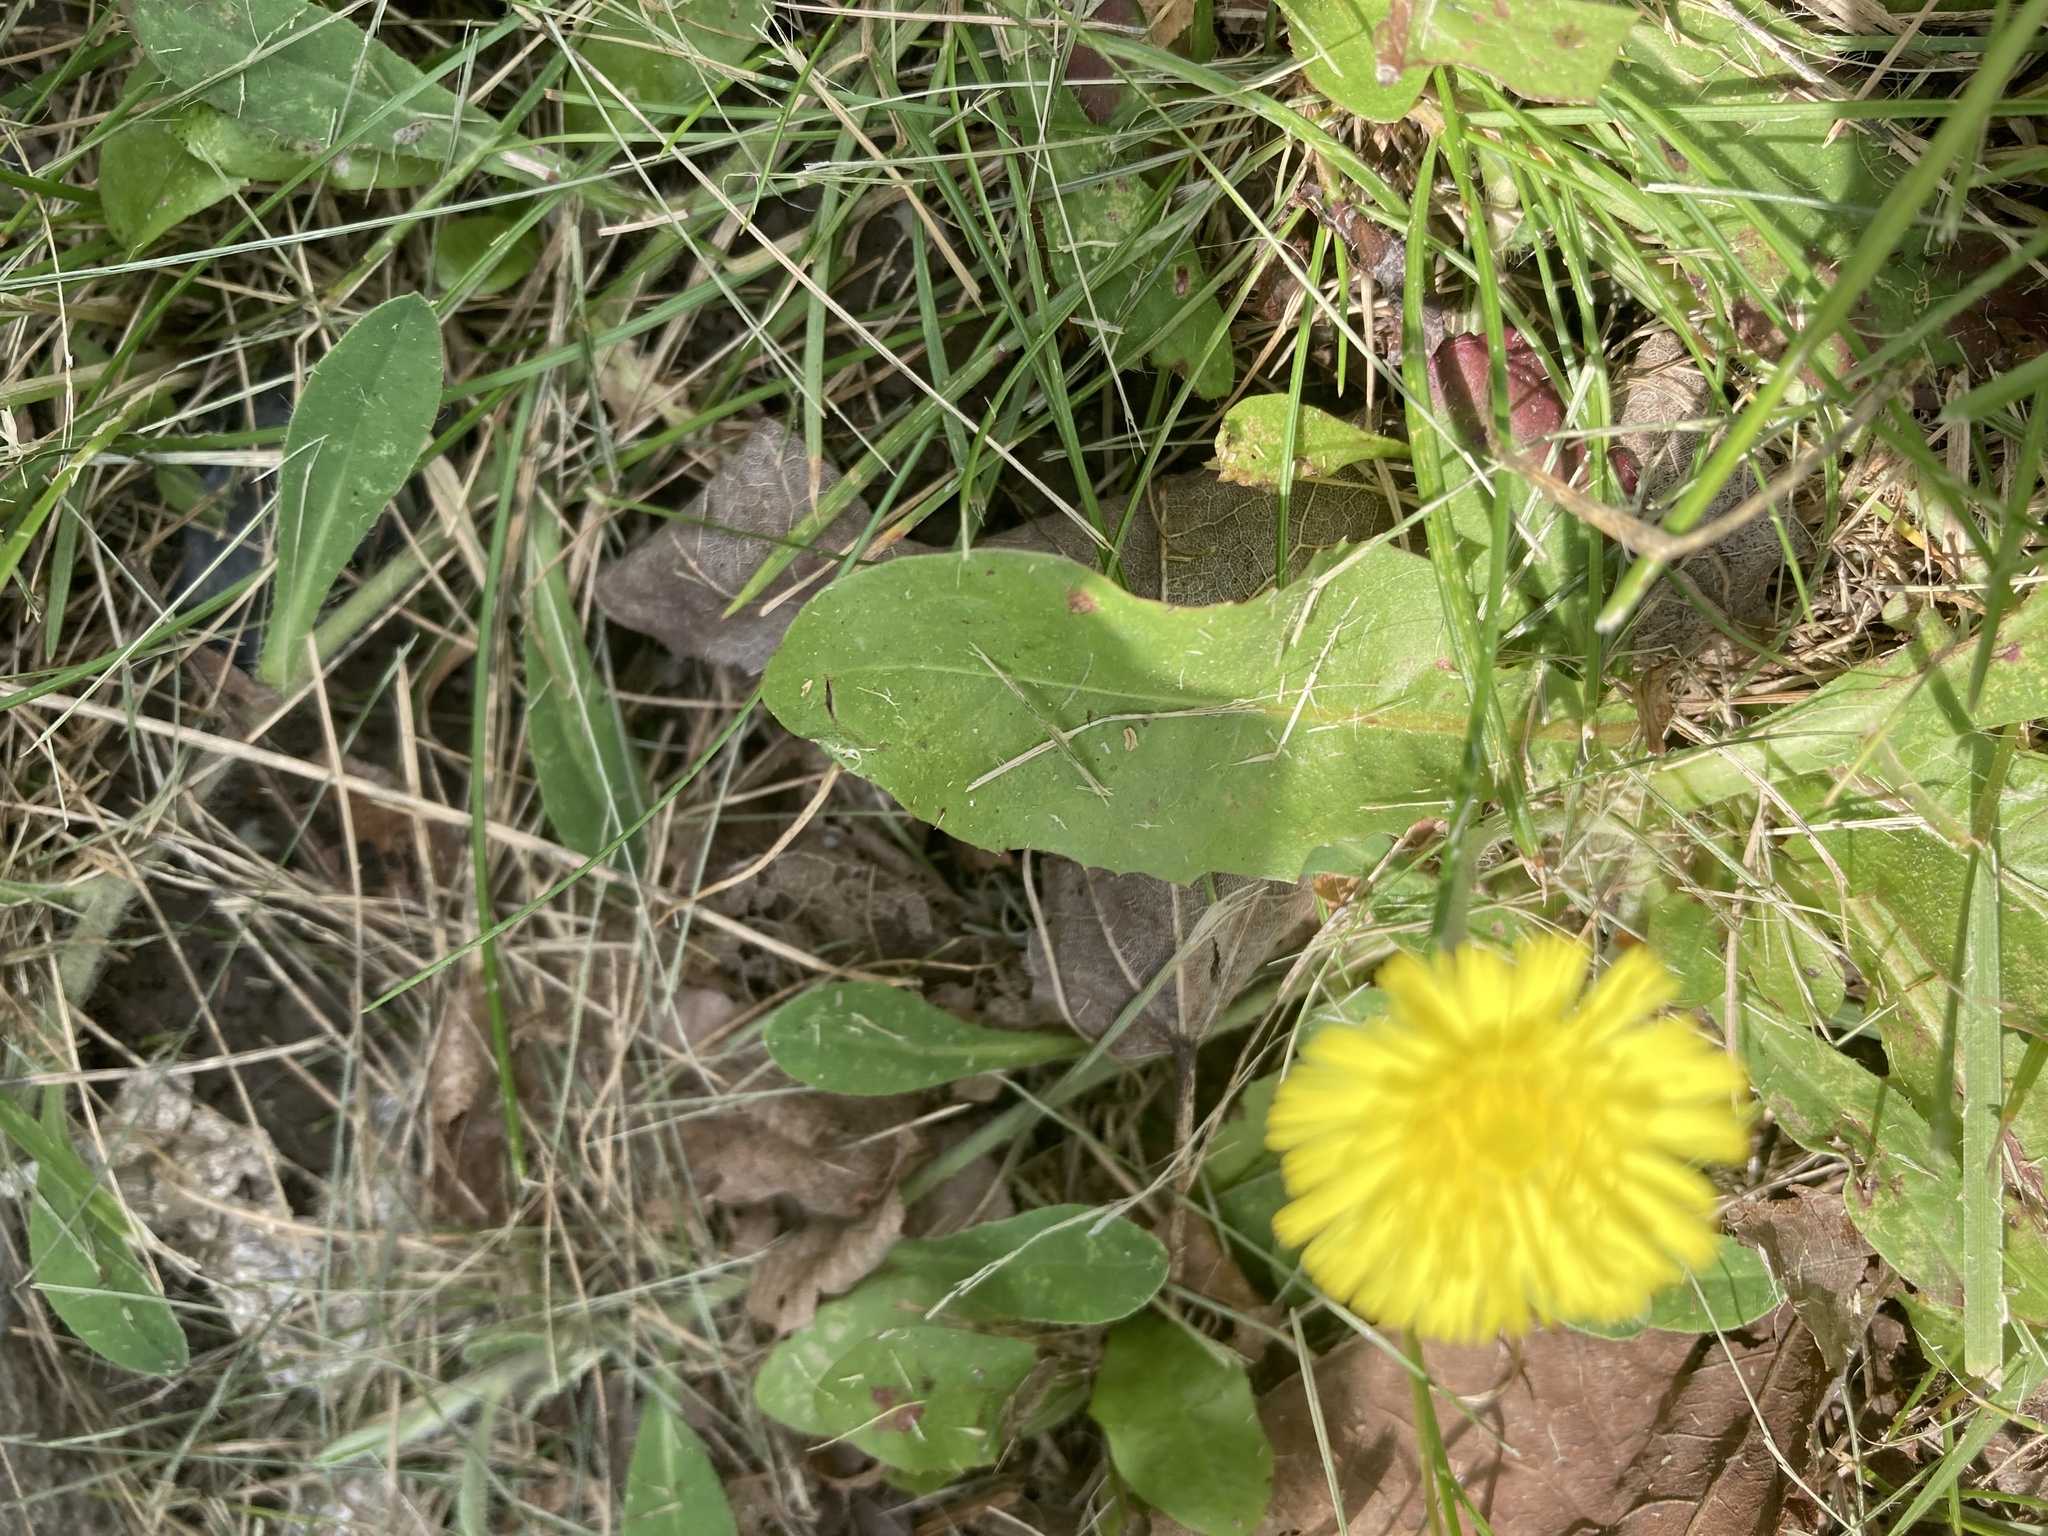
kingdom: Plantae
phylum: Tracheophyta
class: Magnoliopsida
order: Asterales
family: Asteraceae
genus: Pilosella
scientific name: Pilosella officinarum
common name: Mouse-ear hawkweed
